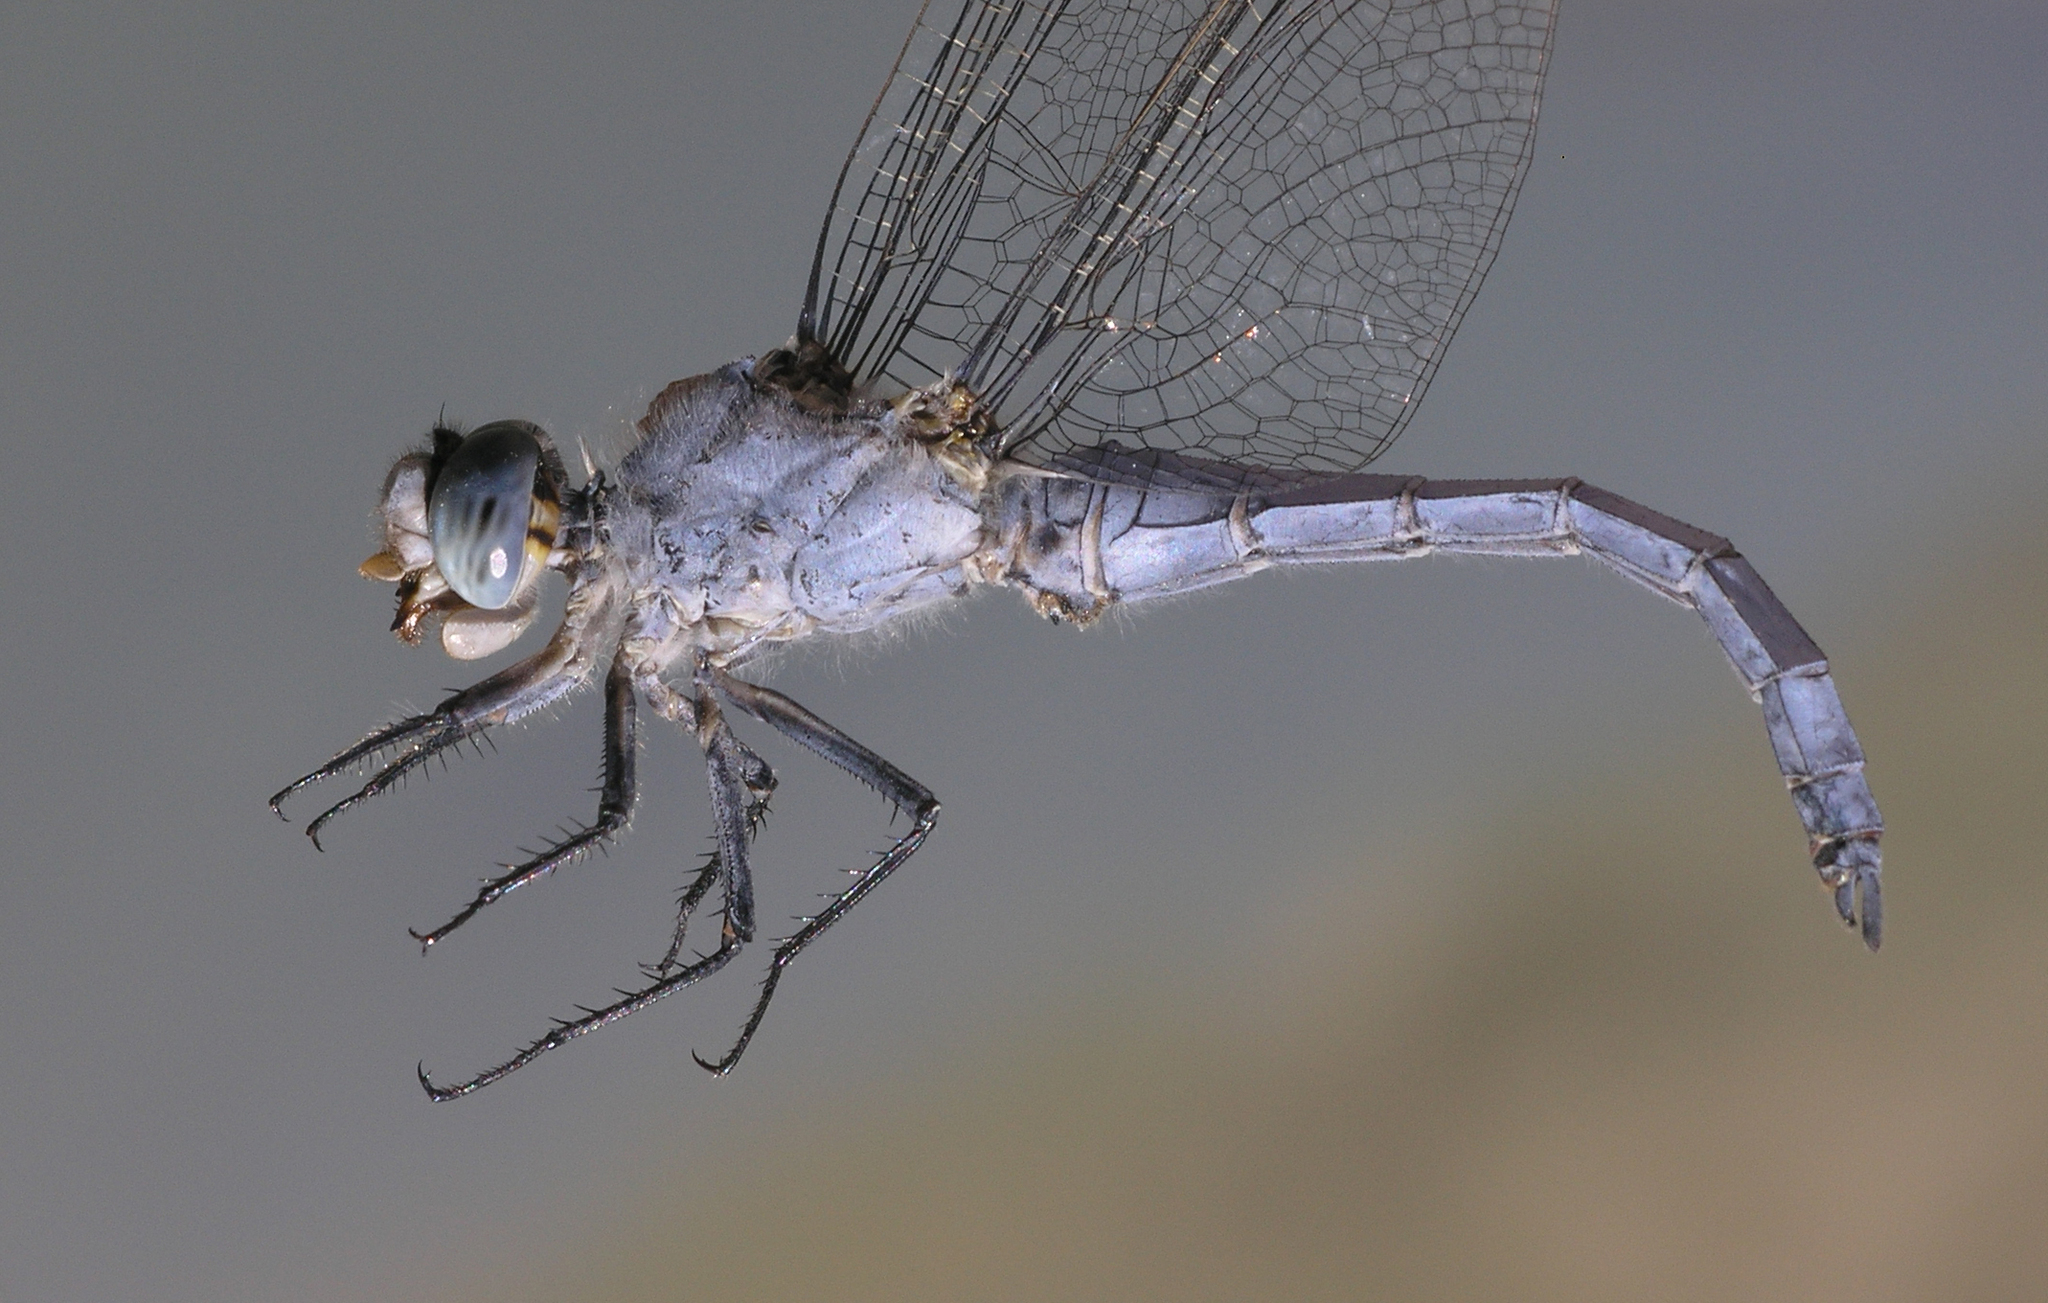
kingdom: Animalia
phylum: Arthropoda
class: Insecta
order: Odonata
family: Libellulidae
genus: Orthetrum
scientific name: Orthetrum brunneum
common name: Southern skimmer
